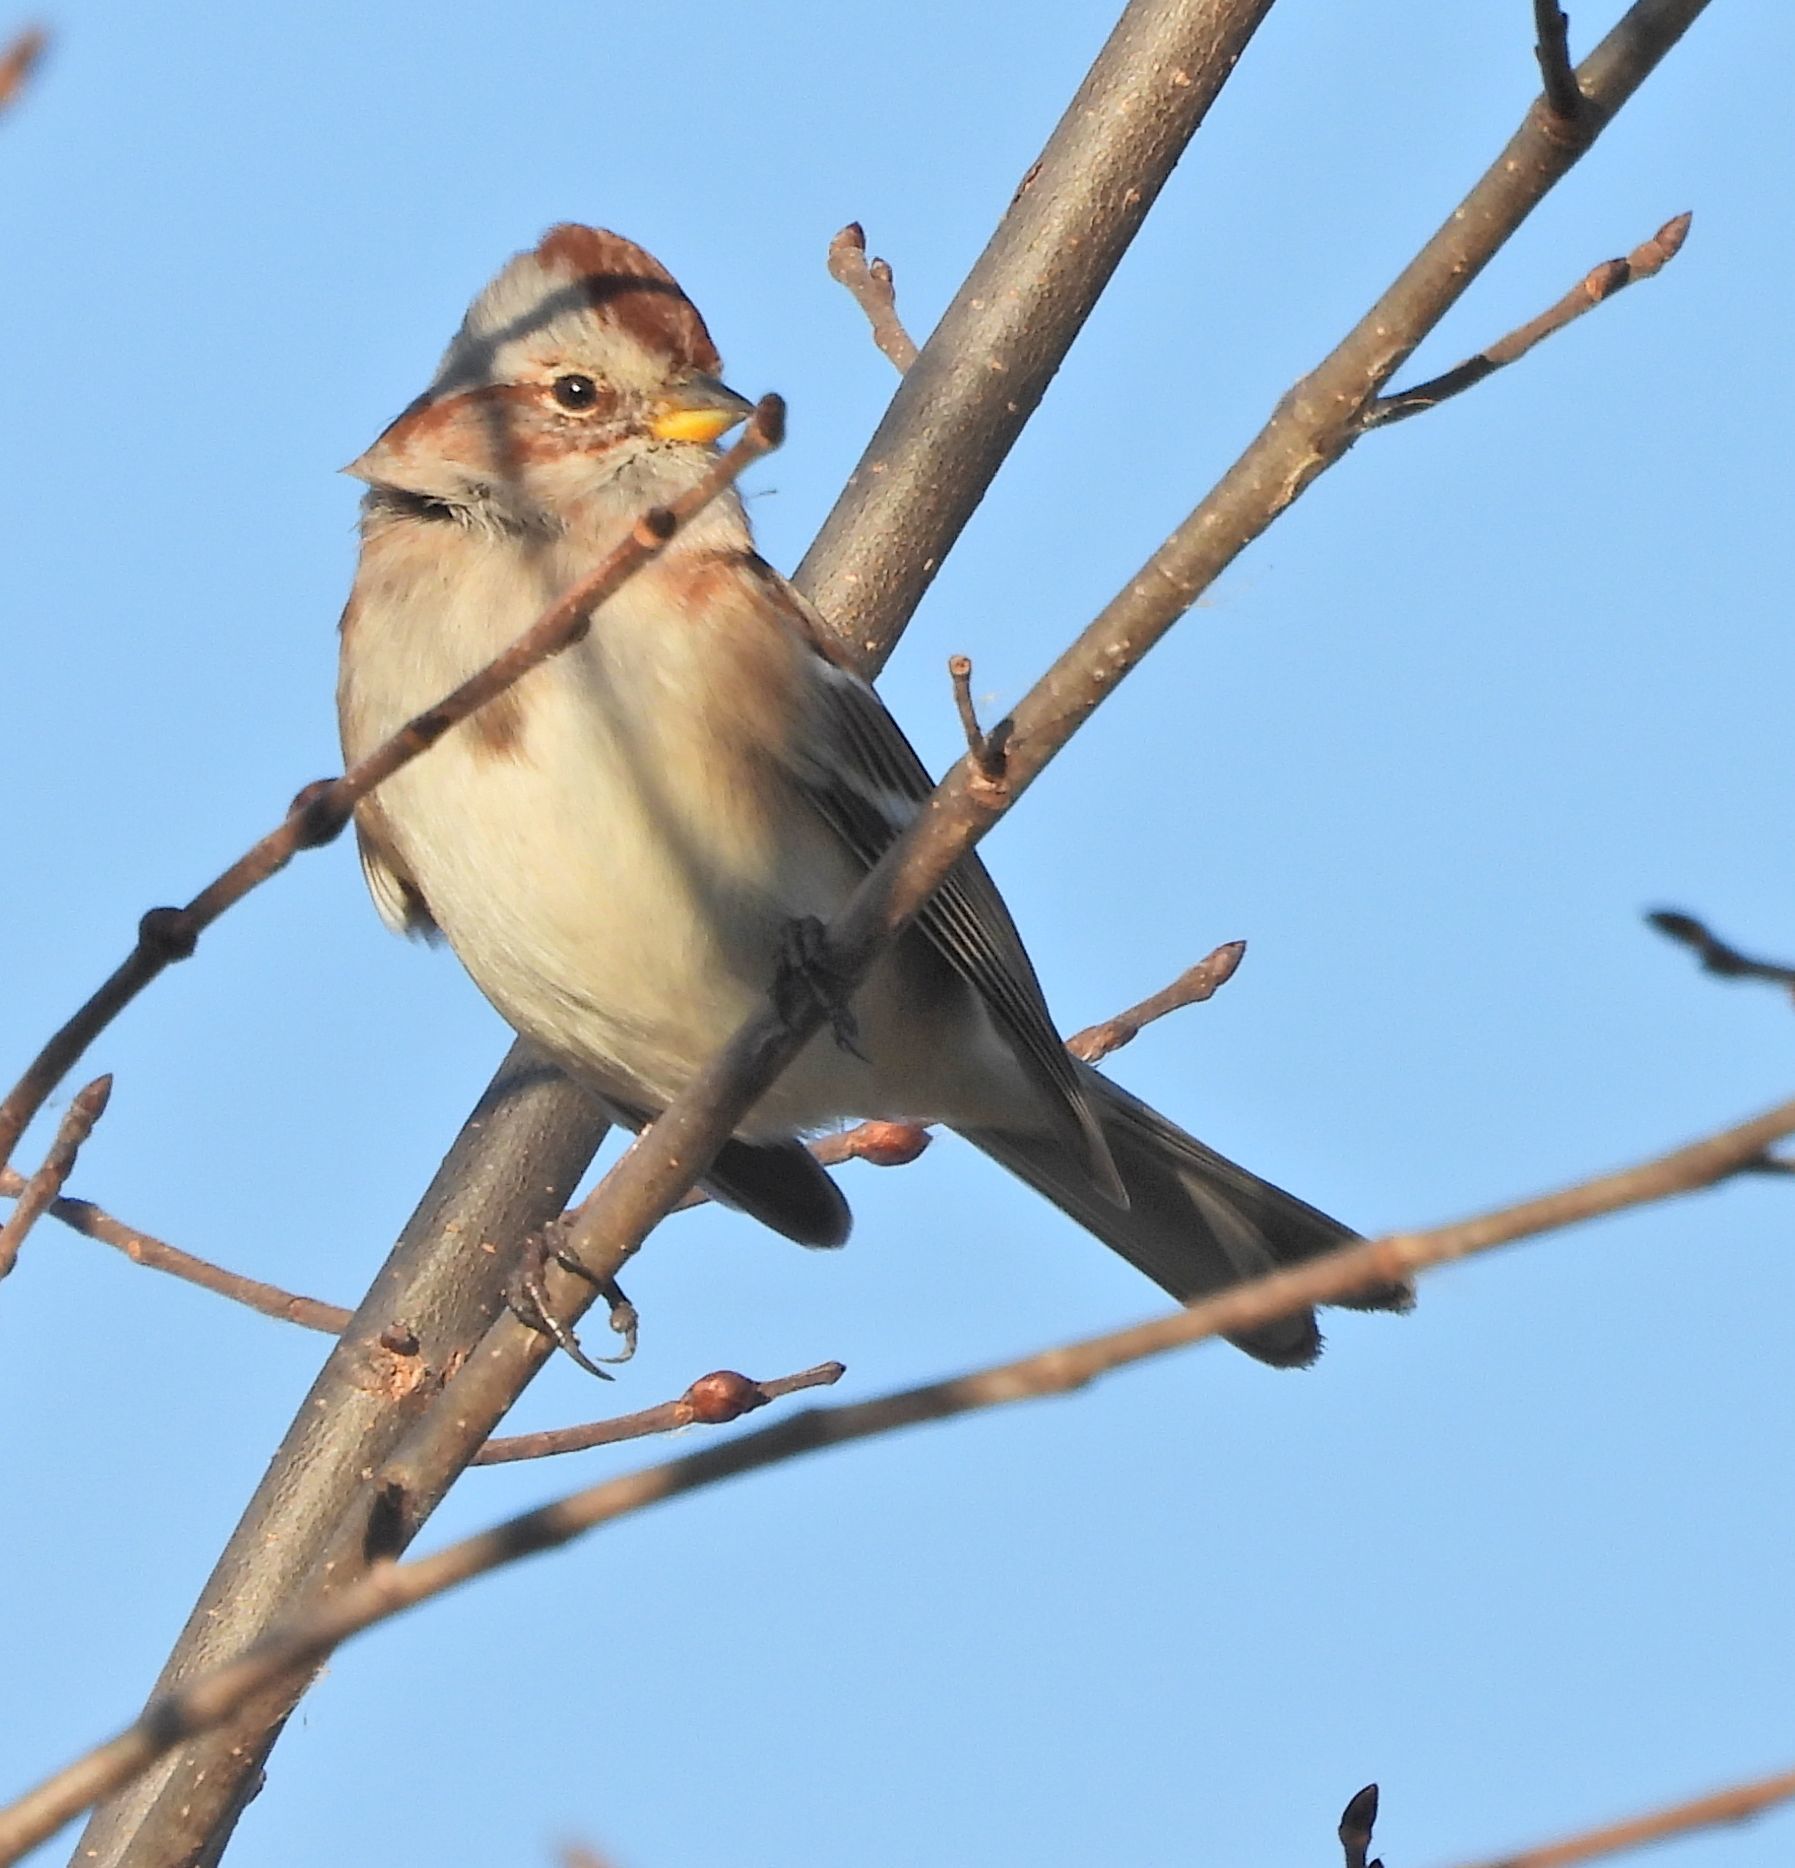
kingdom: Animalia
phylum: Chordata
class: Aves
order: Passeriformes
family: Passerellidae
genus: Spizelloides
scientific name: Spizelloides arborea
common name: American tree sparrow
